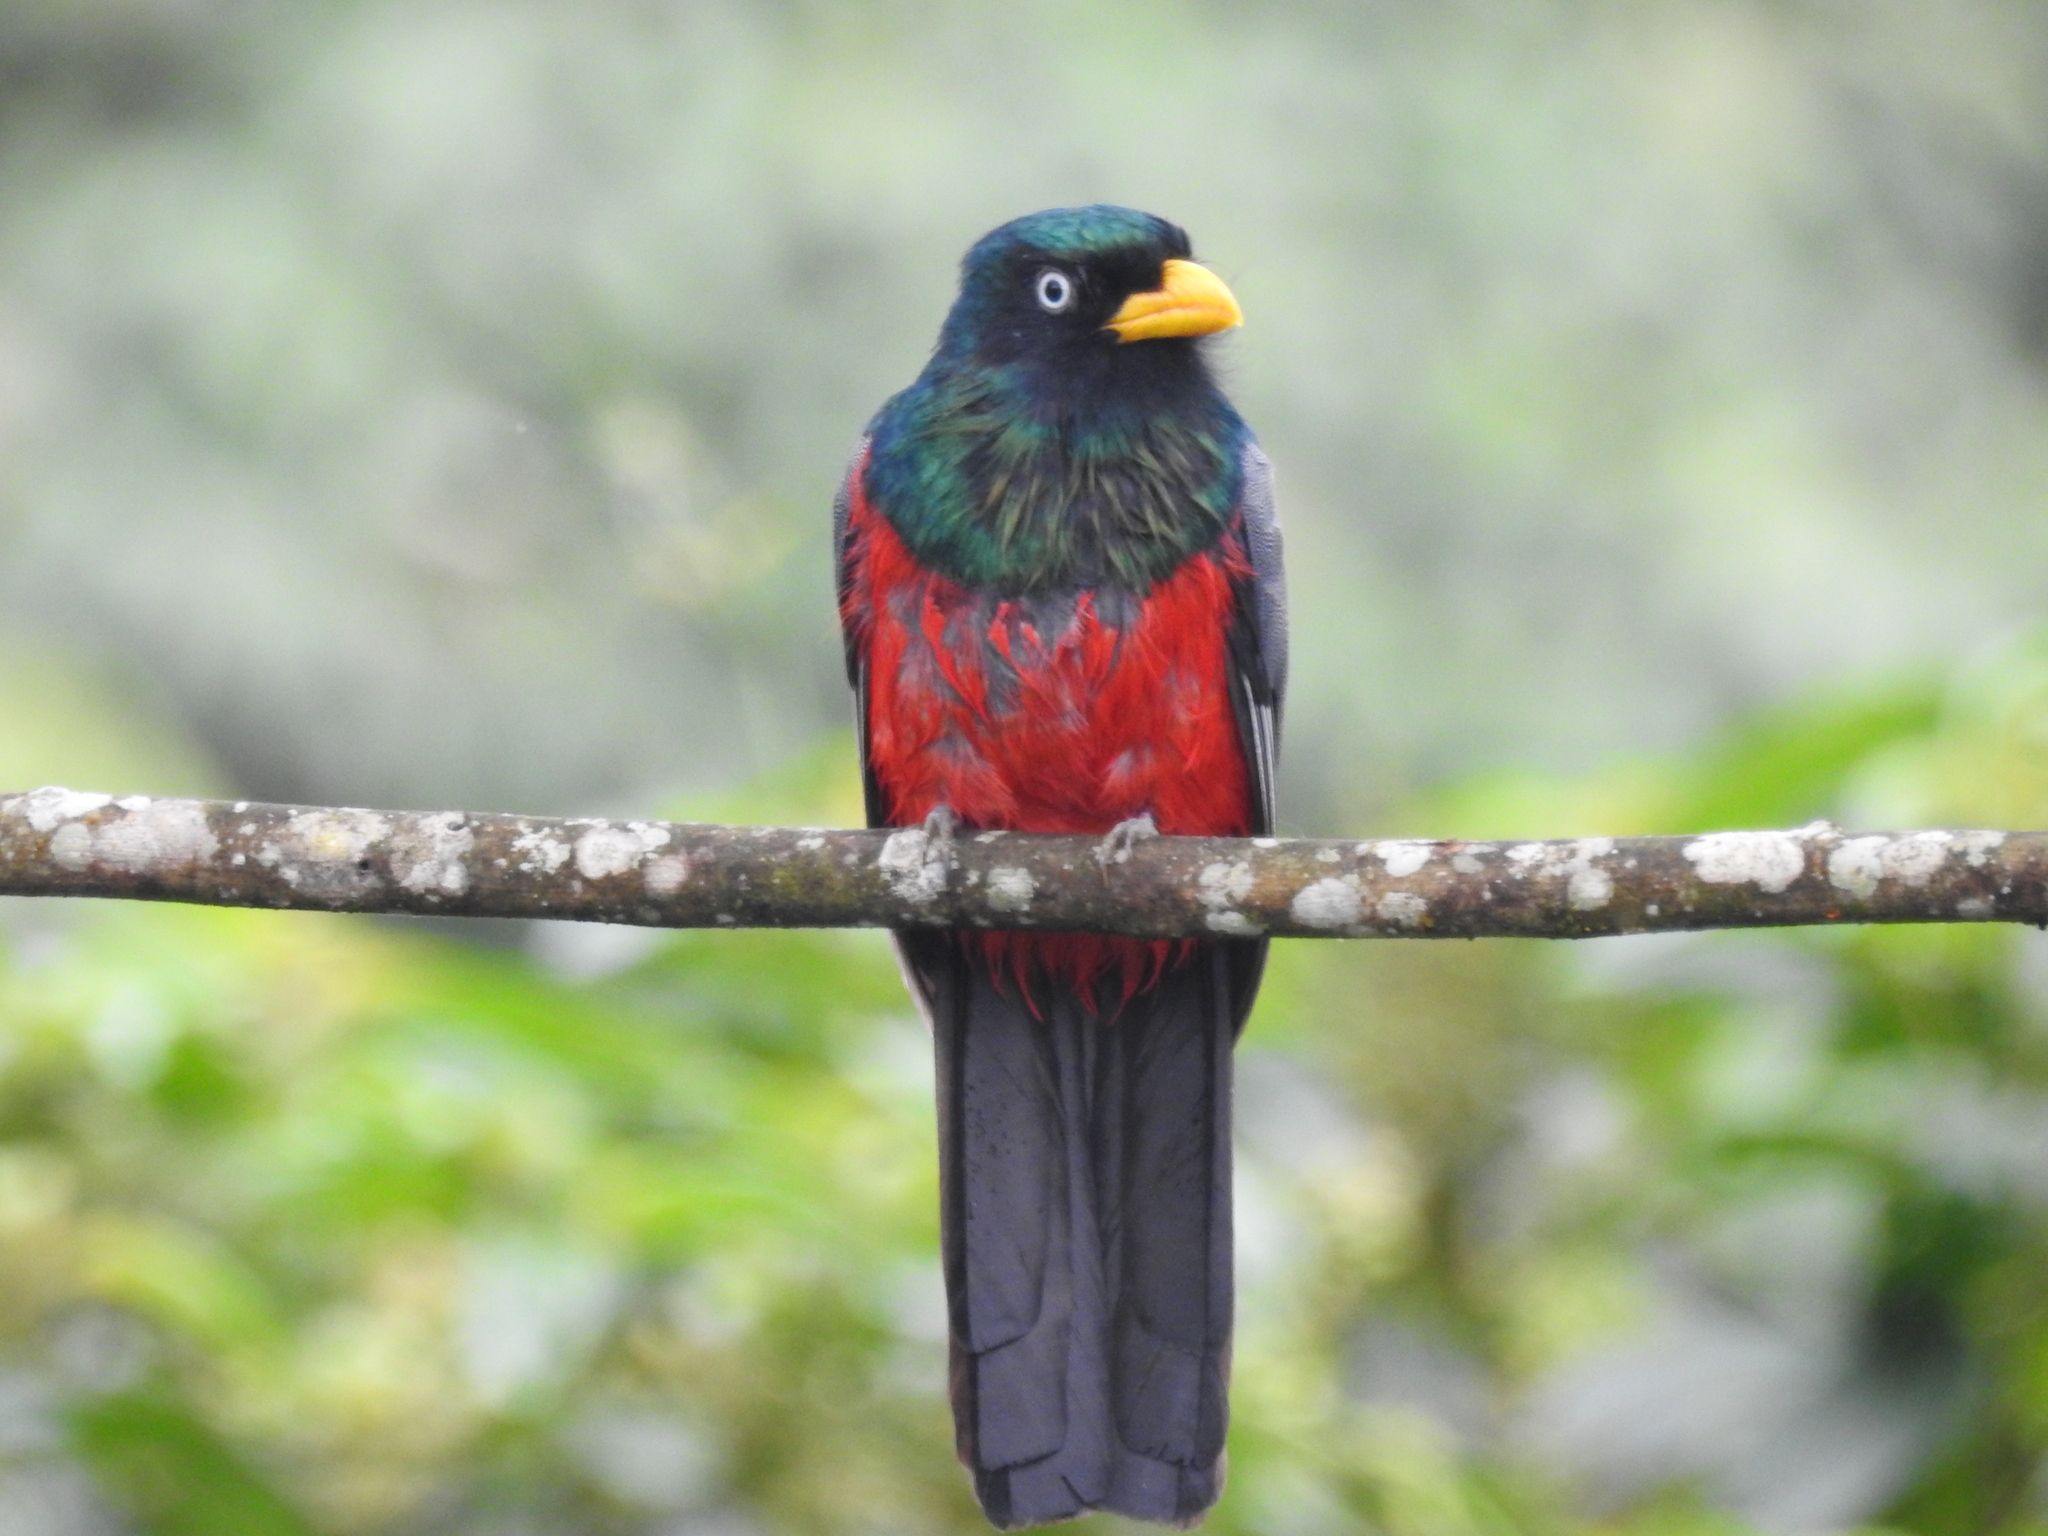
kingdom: Animalia
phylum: Chordata
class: Aves
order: Trogoniformes
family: Trogonidae
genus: Trogon
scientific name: Trogon comptus
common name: Choco trogon
